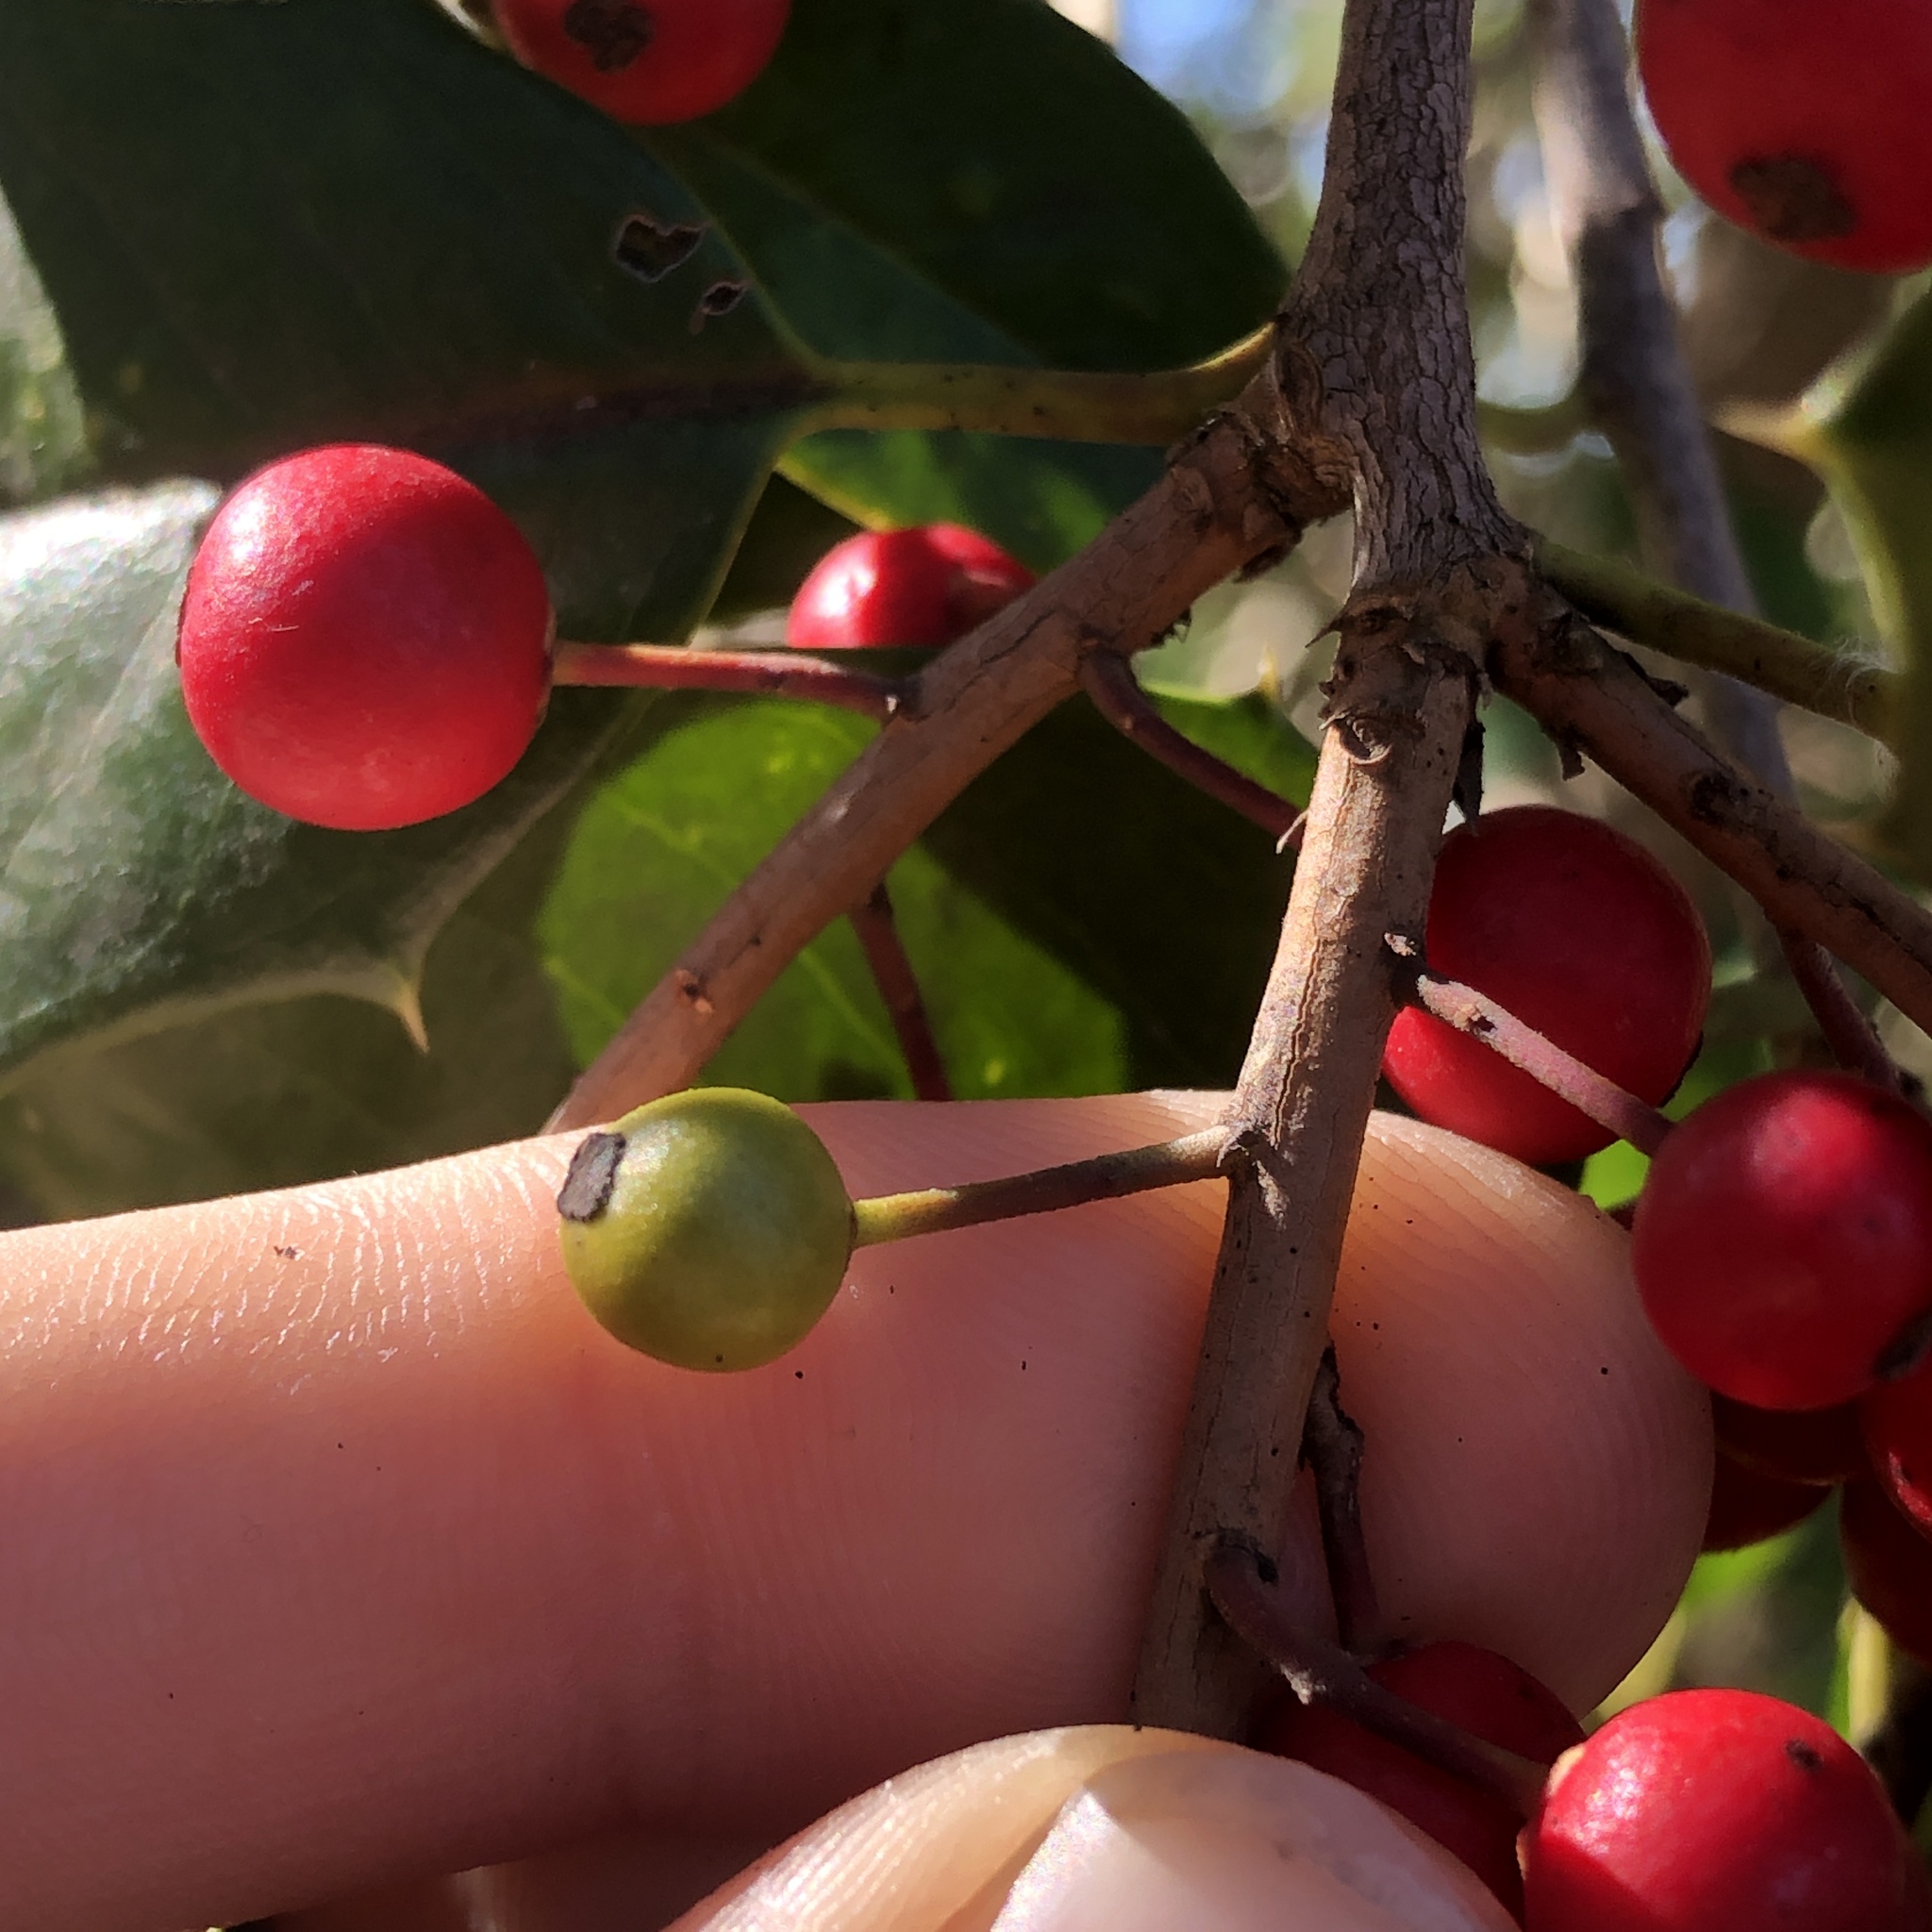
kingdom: Animalia
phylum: Arthropoda
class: Insecta
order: Diptera
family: Cecidomyiidae
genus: Asphondylia
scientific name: Asphondylia ilicicola
